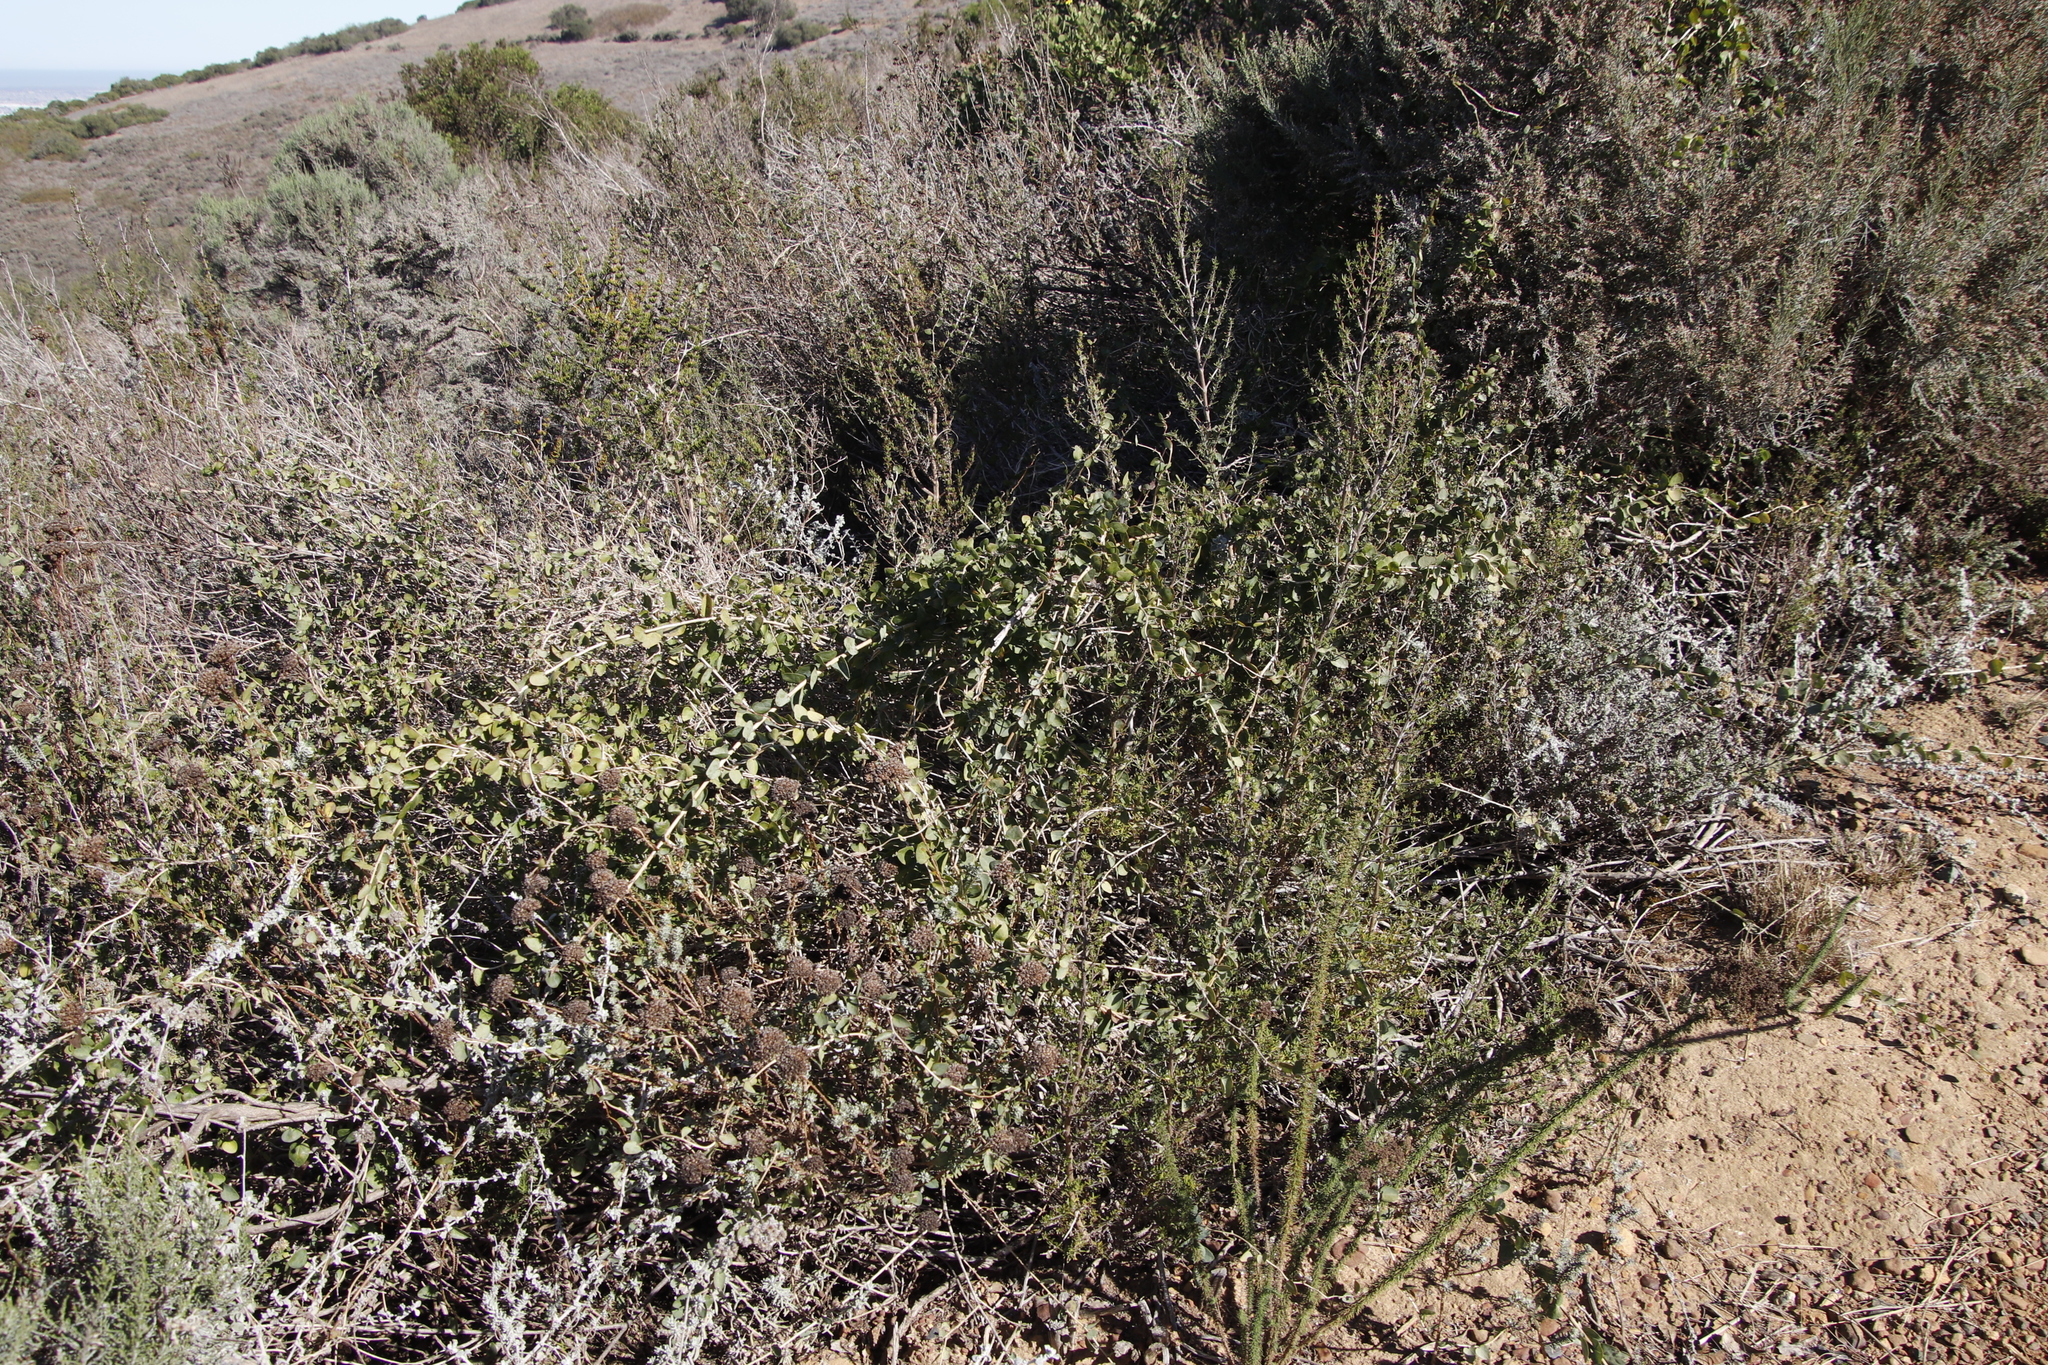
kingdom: Plantae
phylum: Tracheophyta
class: Magnoliopsida
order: Ranunculales
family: Menispermaceae
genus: Cissampelos
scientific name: Cissampelos capensis
